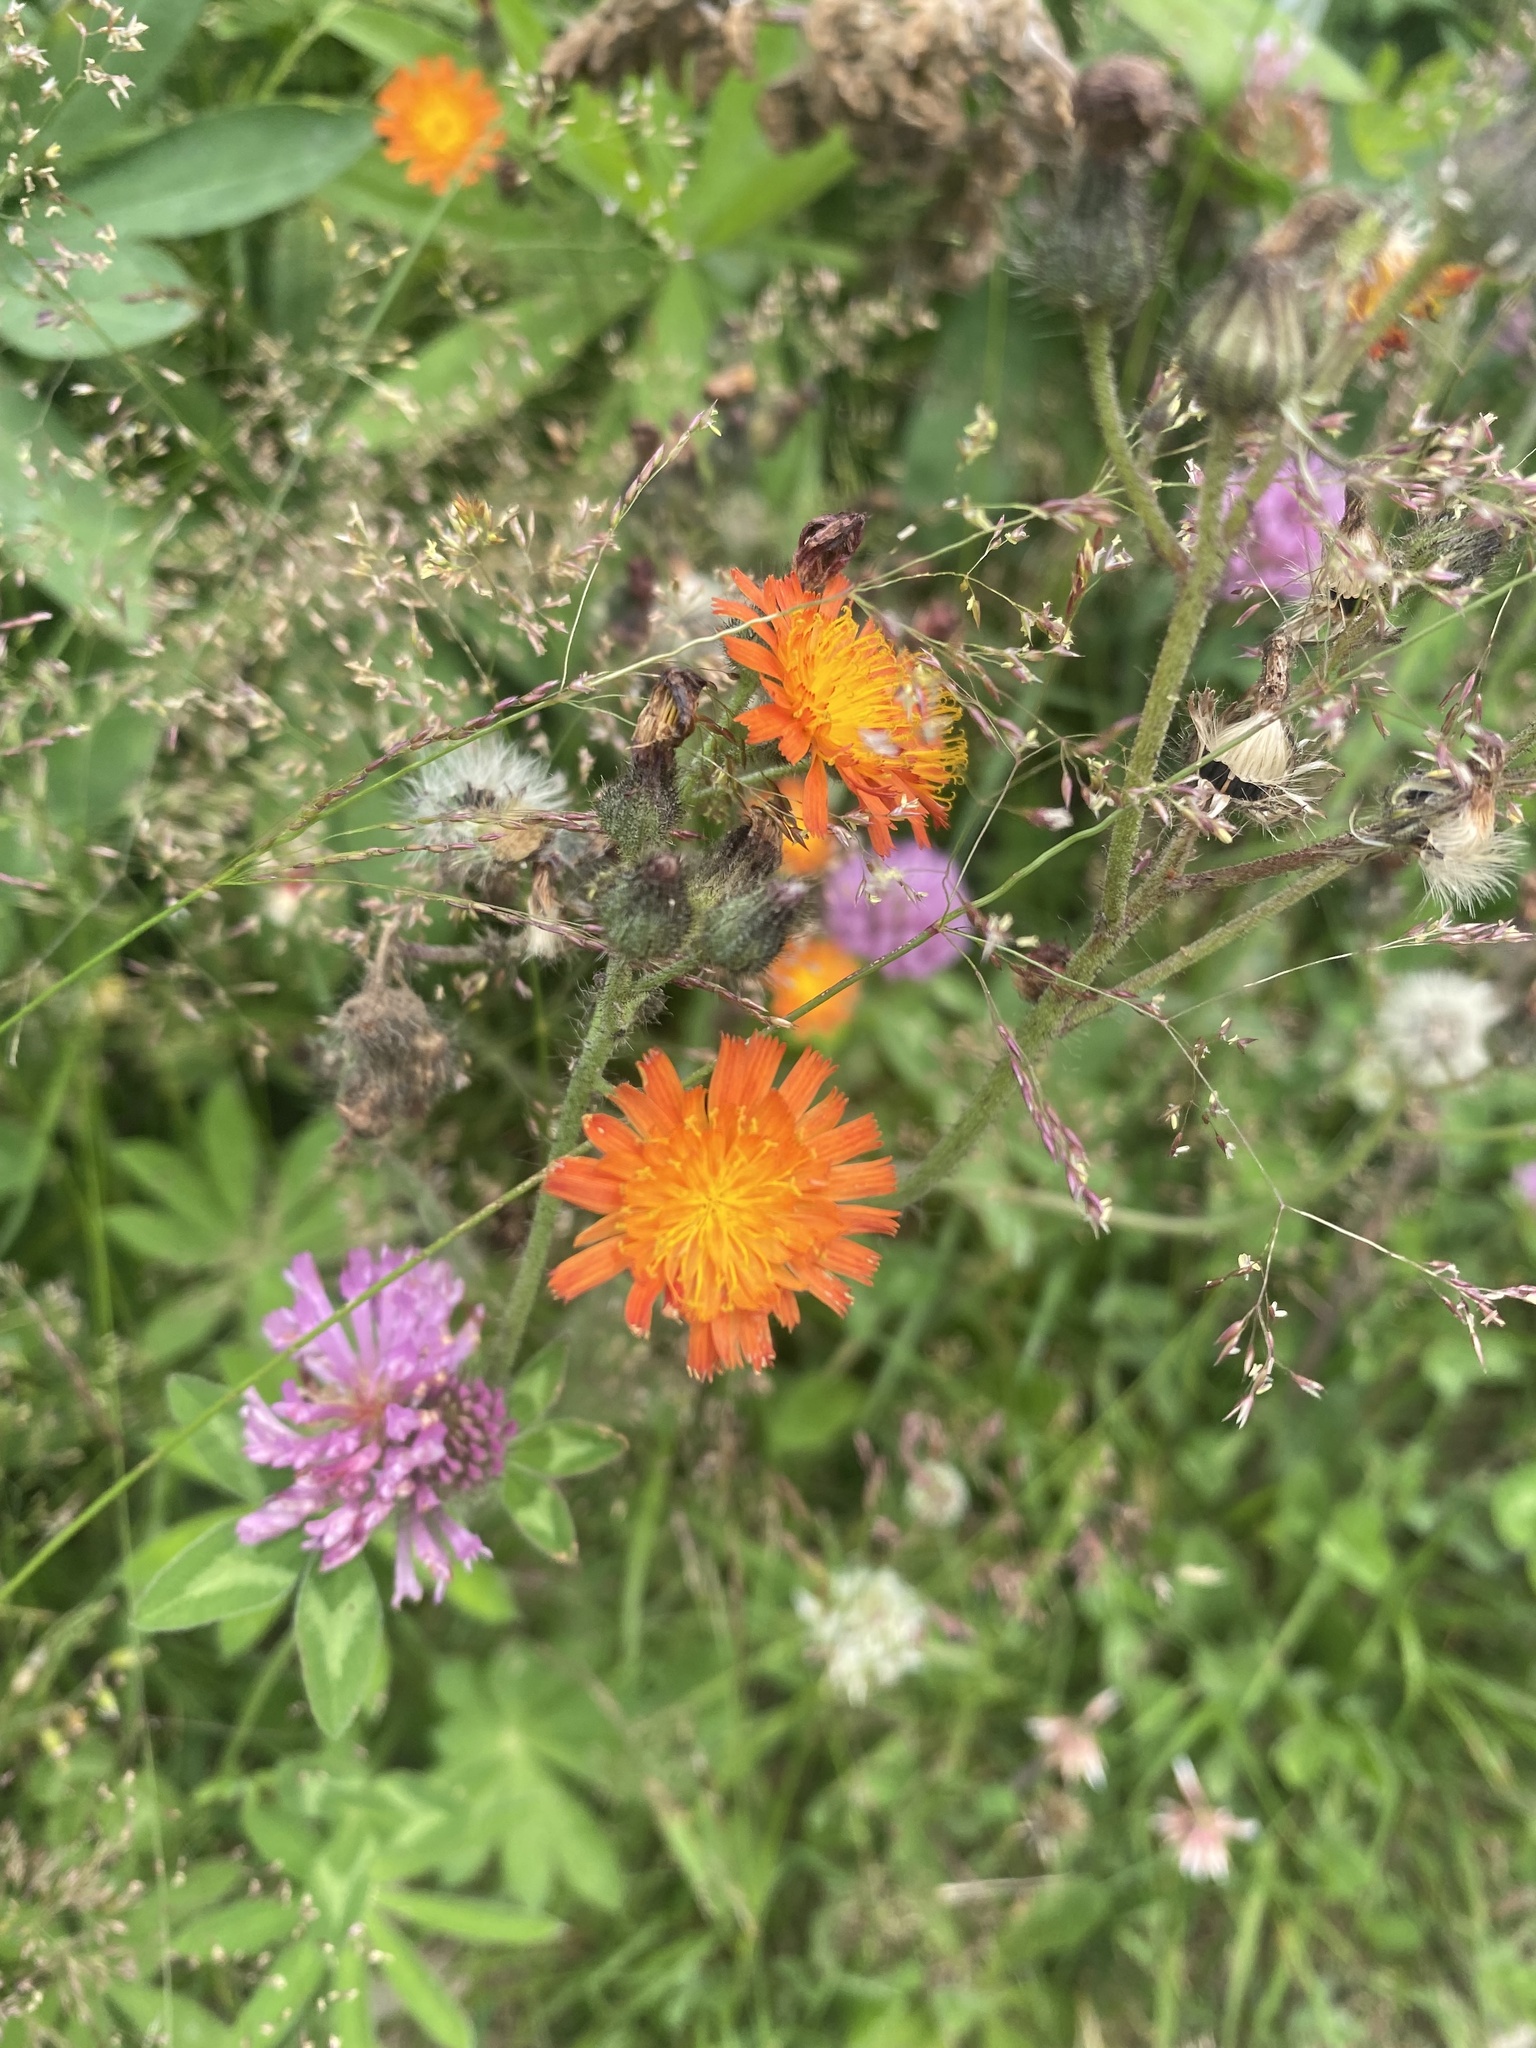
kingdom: Plantae
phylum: Tracheophyta
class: Magnoliopsida
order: Asterales
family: Asteraceae
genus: Pilosella
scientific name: Pilosella aurantiaca
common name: Fox-and-cubs
